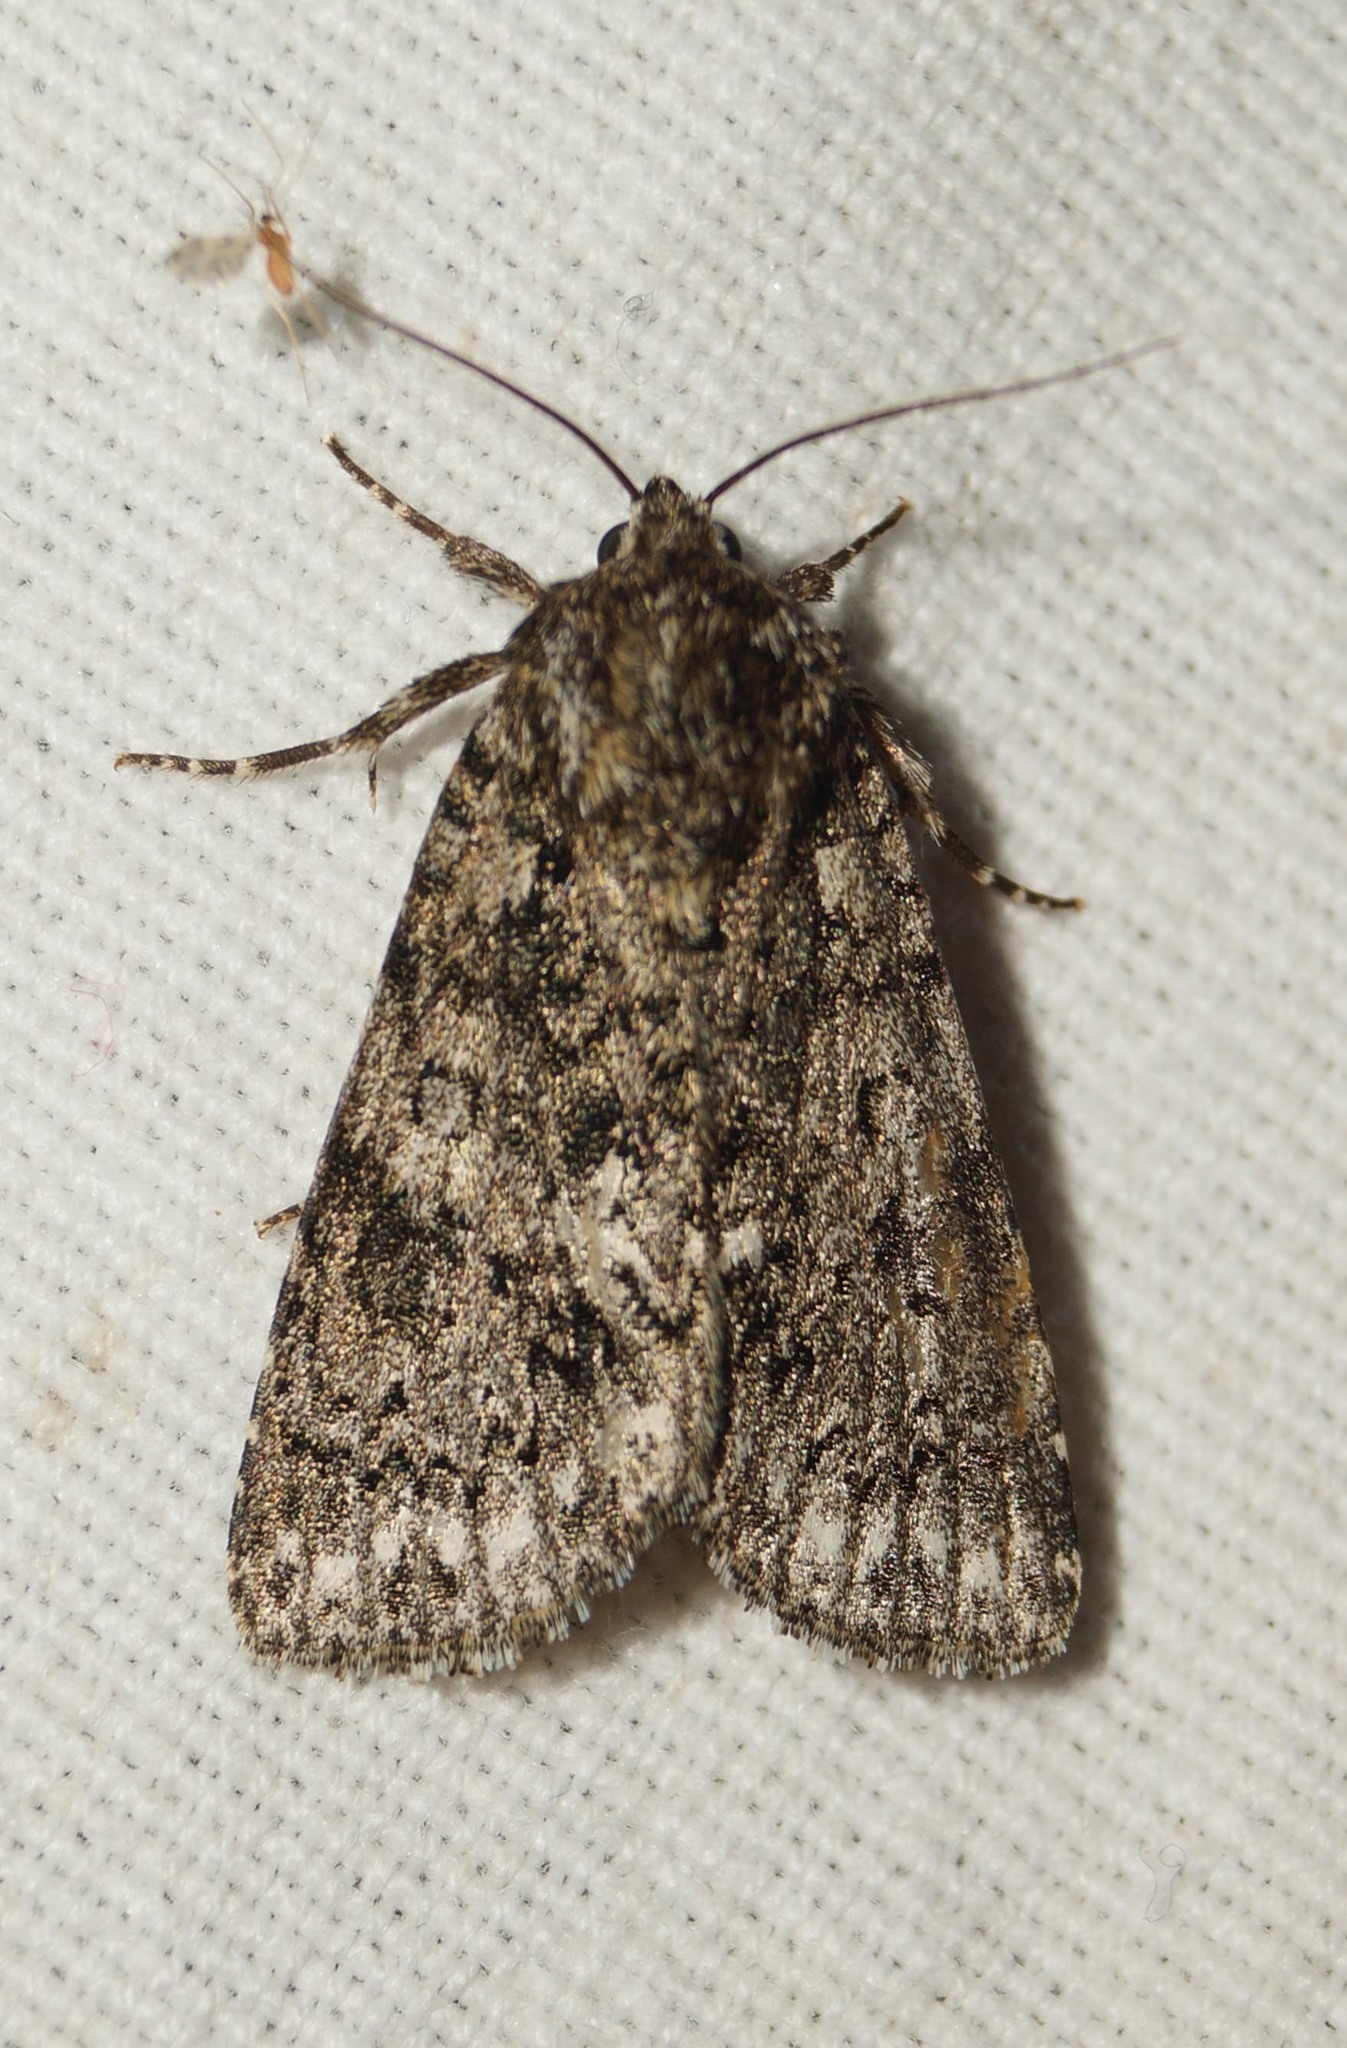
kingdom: Animalia
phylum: Arthropoda
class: Insecta
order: Lepidoptera
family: Noctuidae
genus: Acronicta
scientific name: Acronicta rumicis
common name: Knot grass
